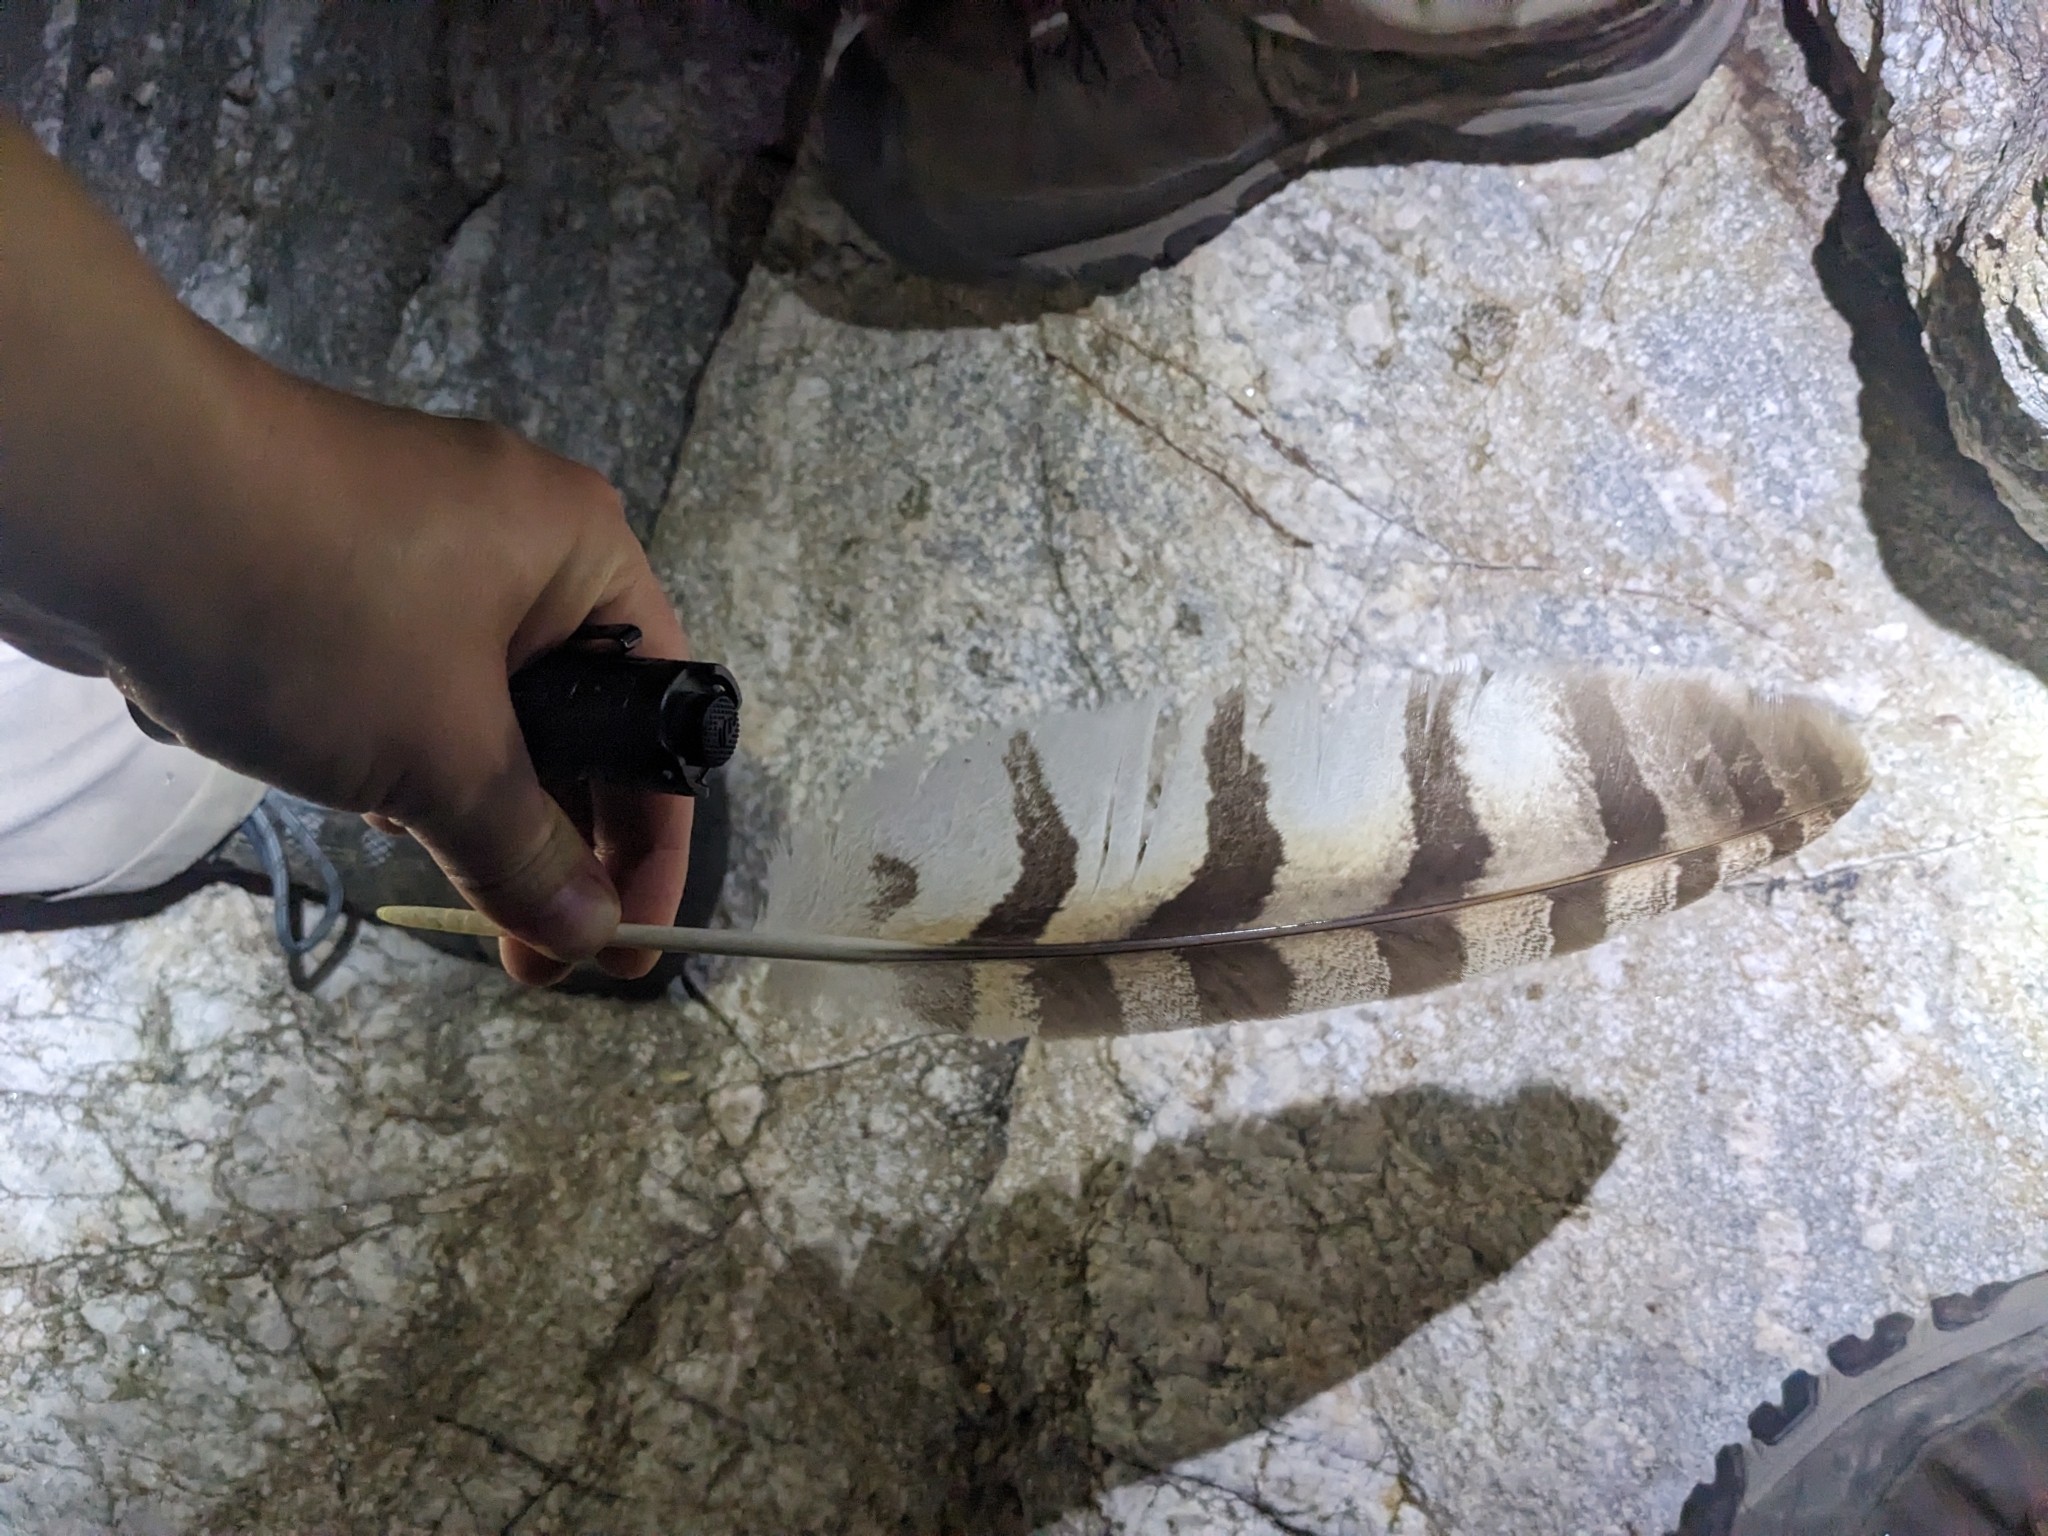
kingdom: Animalia
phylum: Chordata
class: Aves
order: Strigiformes
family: Strigidae
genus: Bubo
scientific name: Bubo virginianus
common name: Great horned owl
